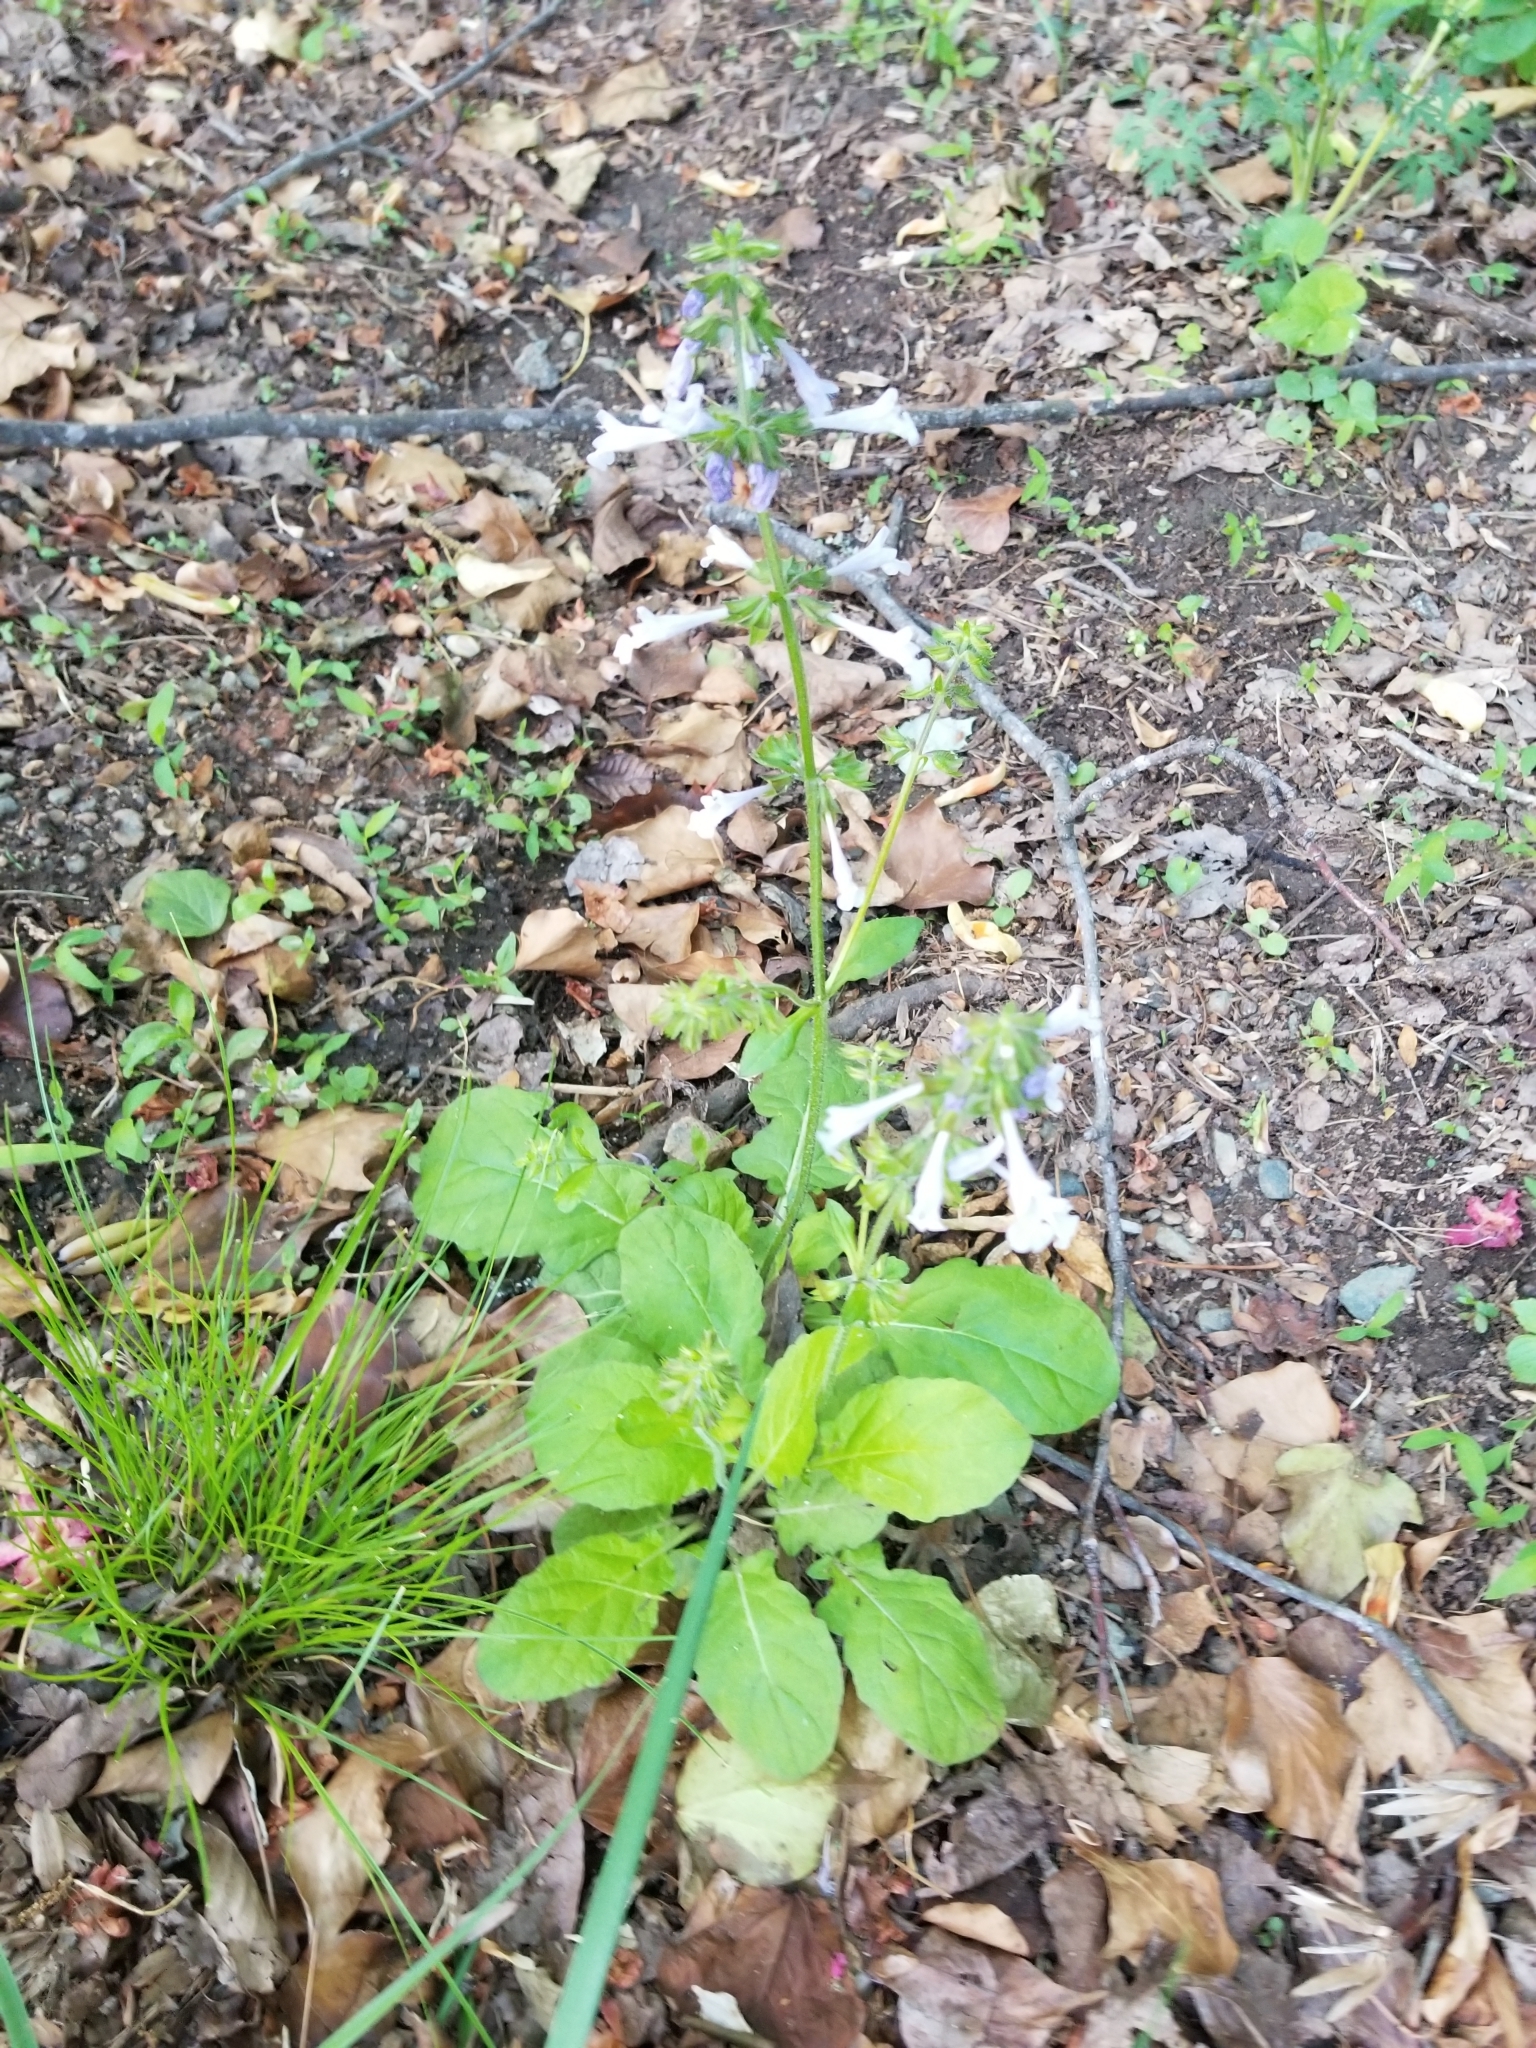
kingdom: Plantae
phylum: Tracheophyta
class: Magnoliopsida
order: Lamiales
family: Lamiaceae
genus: Salvia
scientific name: Salvia lyrata
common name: Cancerweed
